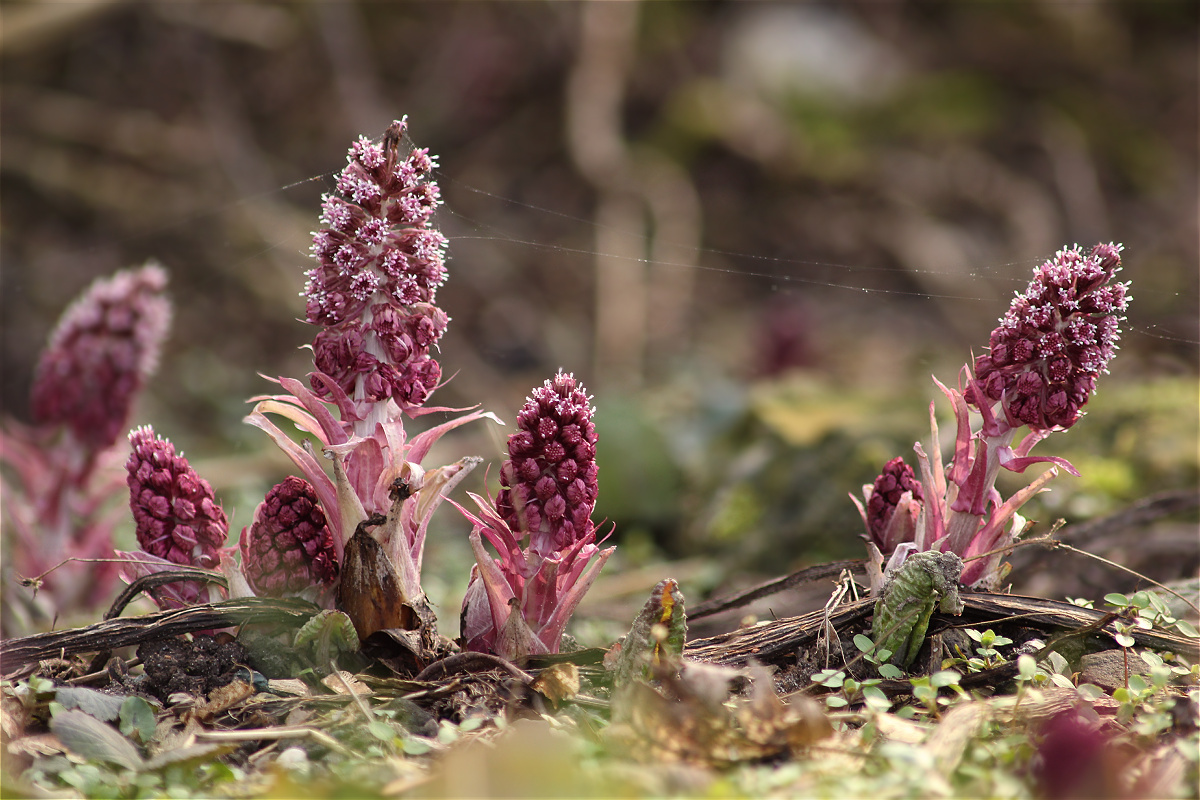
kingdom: Plantae
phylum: Tracheophyta
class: Magnoliopsida
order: Asterales
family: Asteraceae
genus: Petasites
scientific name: Petasites hybridus
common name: Butterbur
